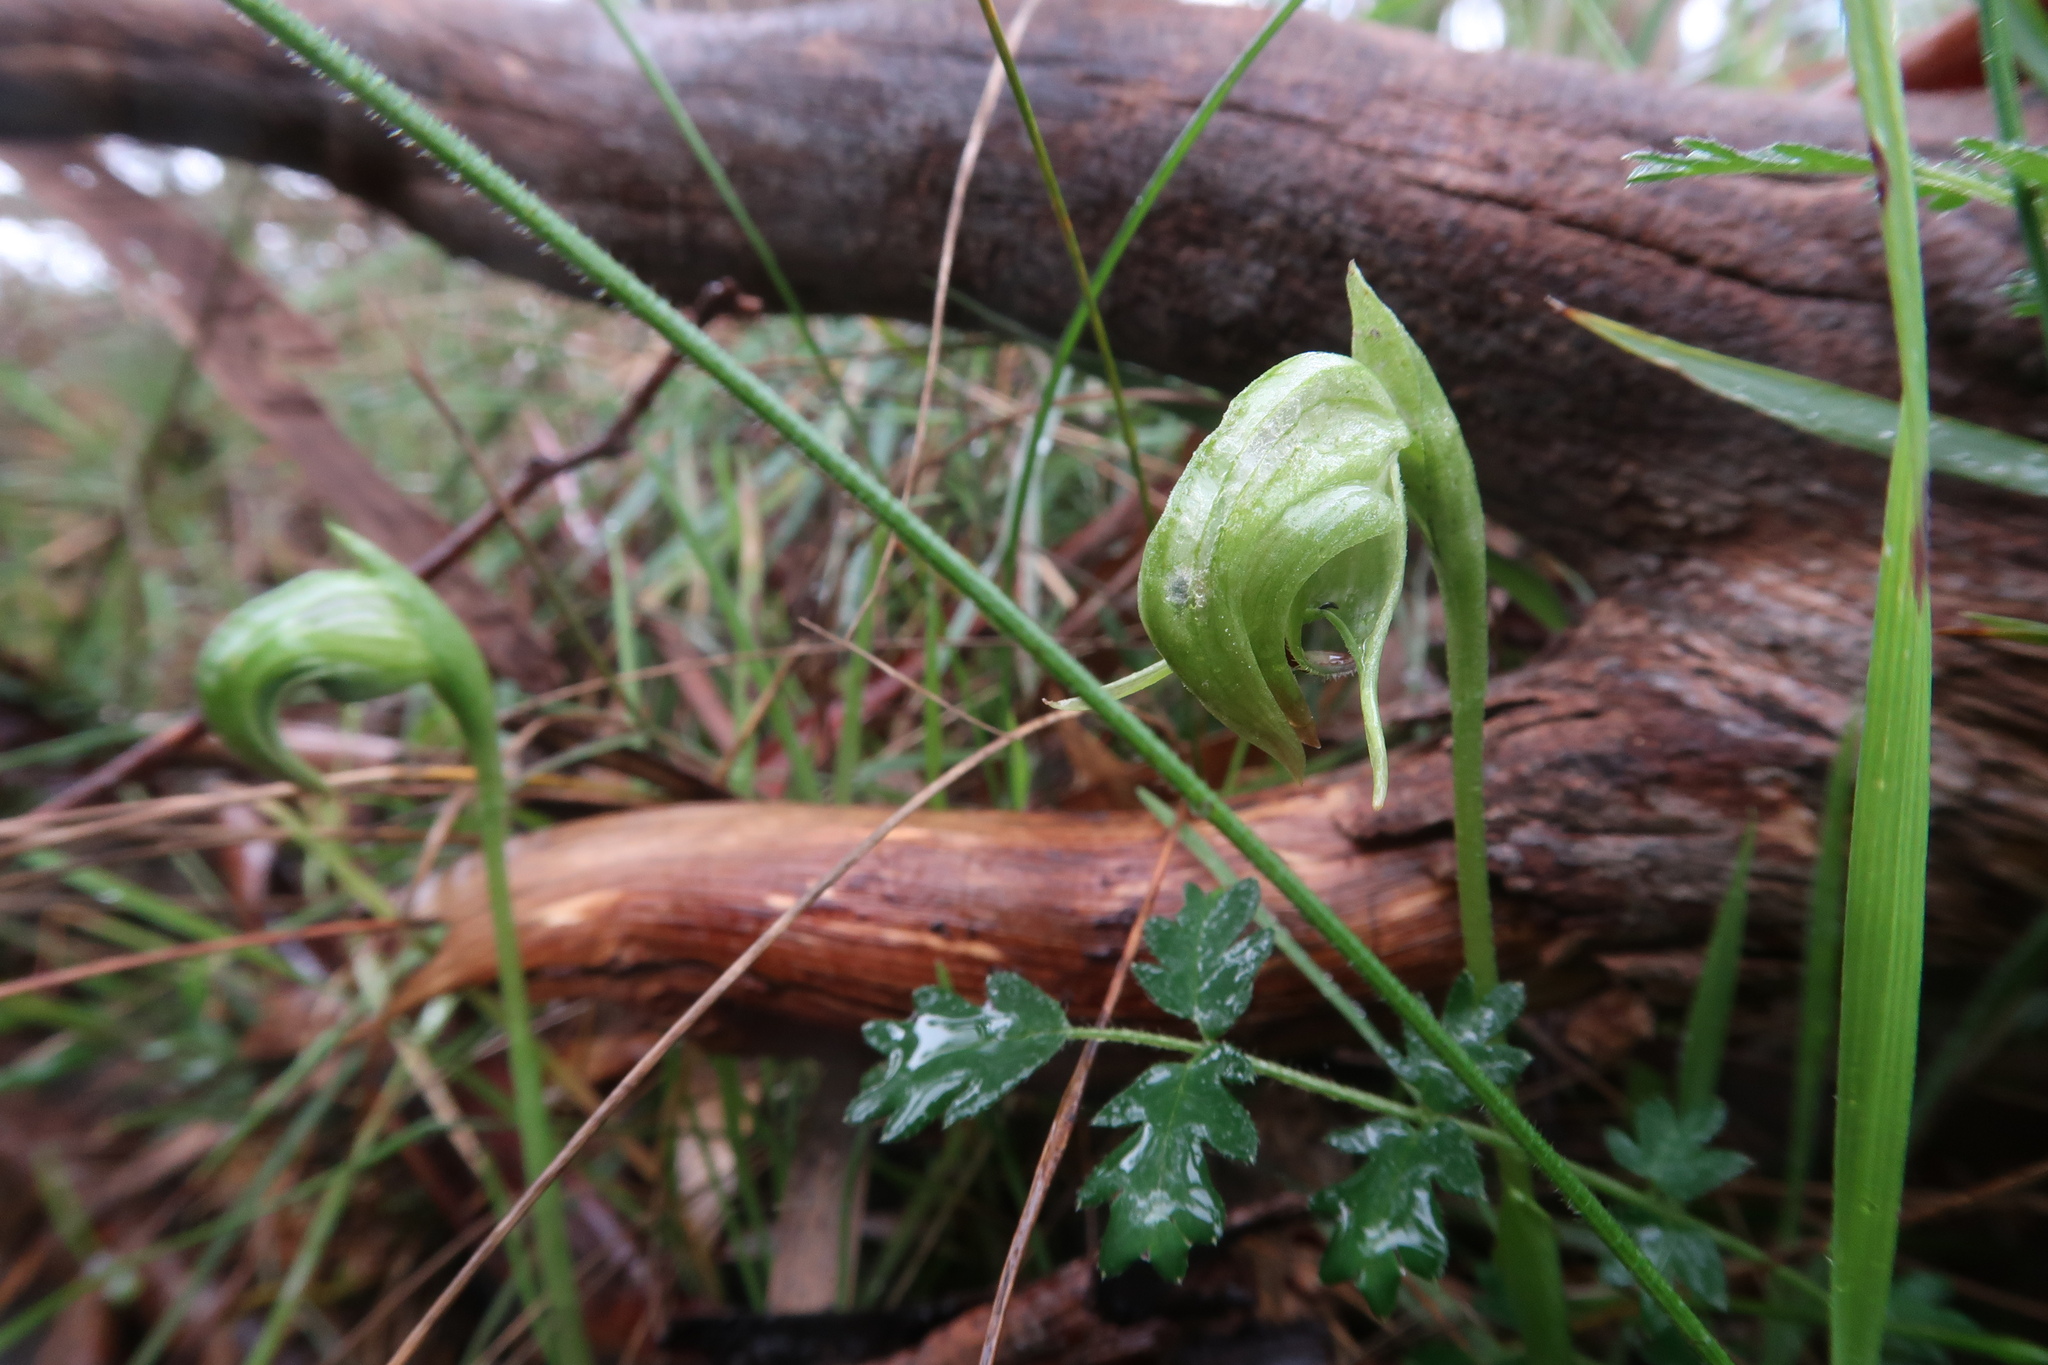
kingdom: Plantae
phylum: Tracheophyta
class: Liliopsida
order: Asparagales
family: Orchidaceae
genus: Pterostylis
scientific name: Pterostylis nutans
